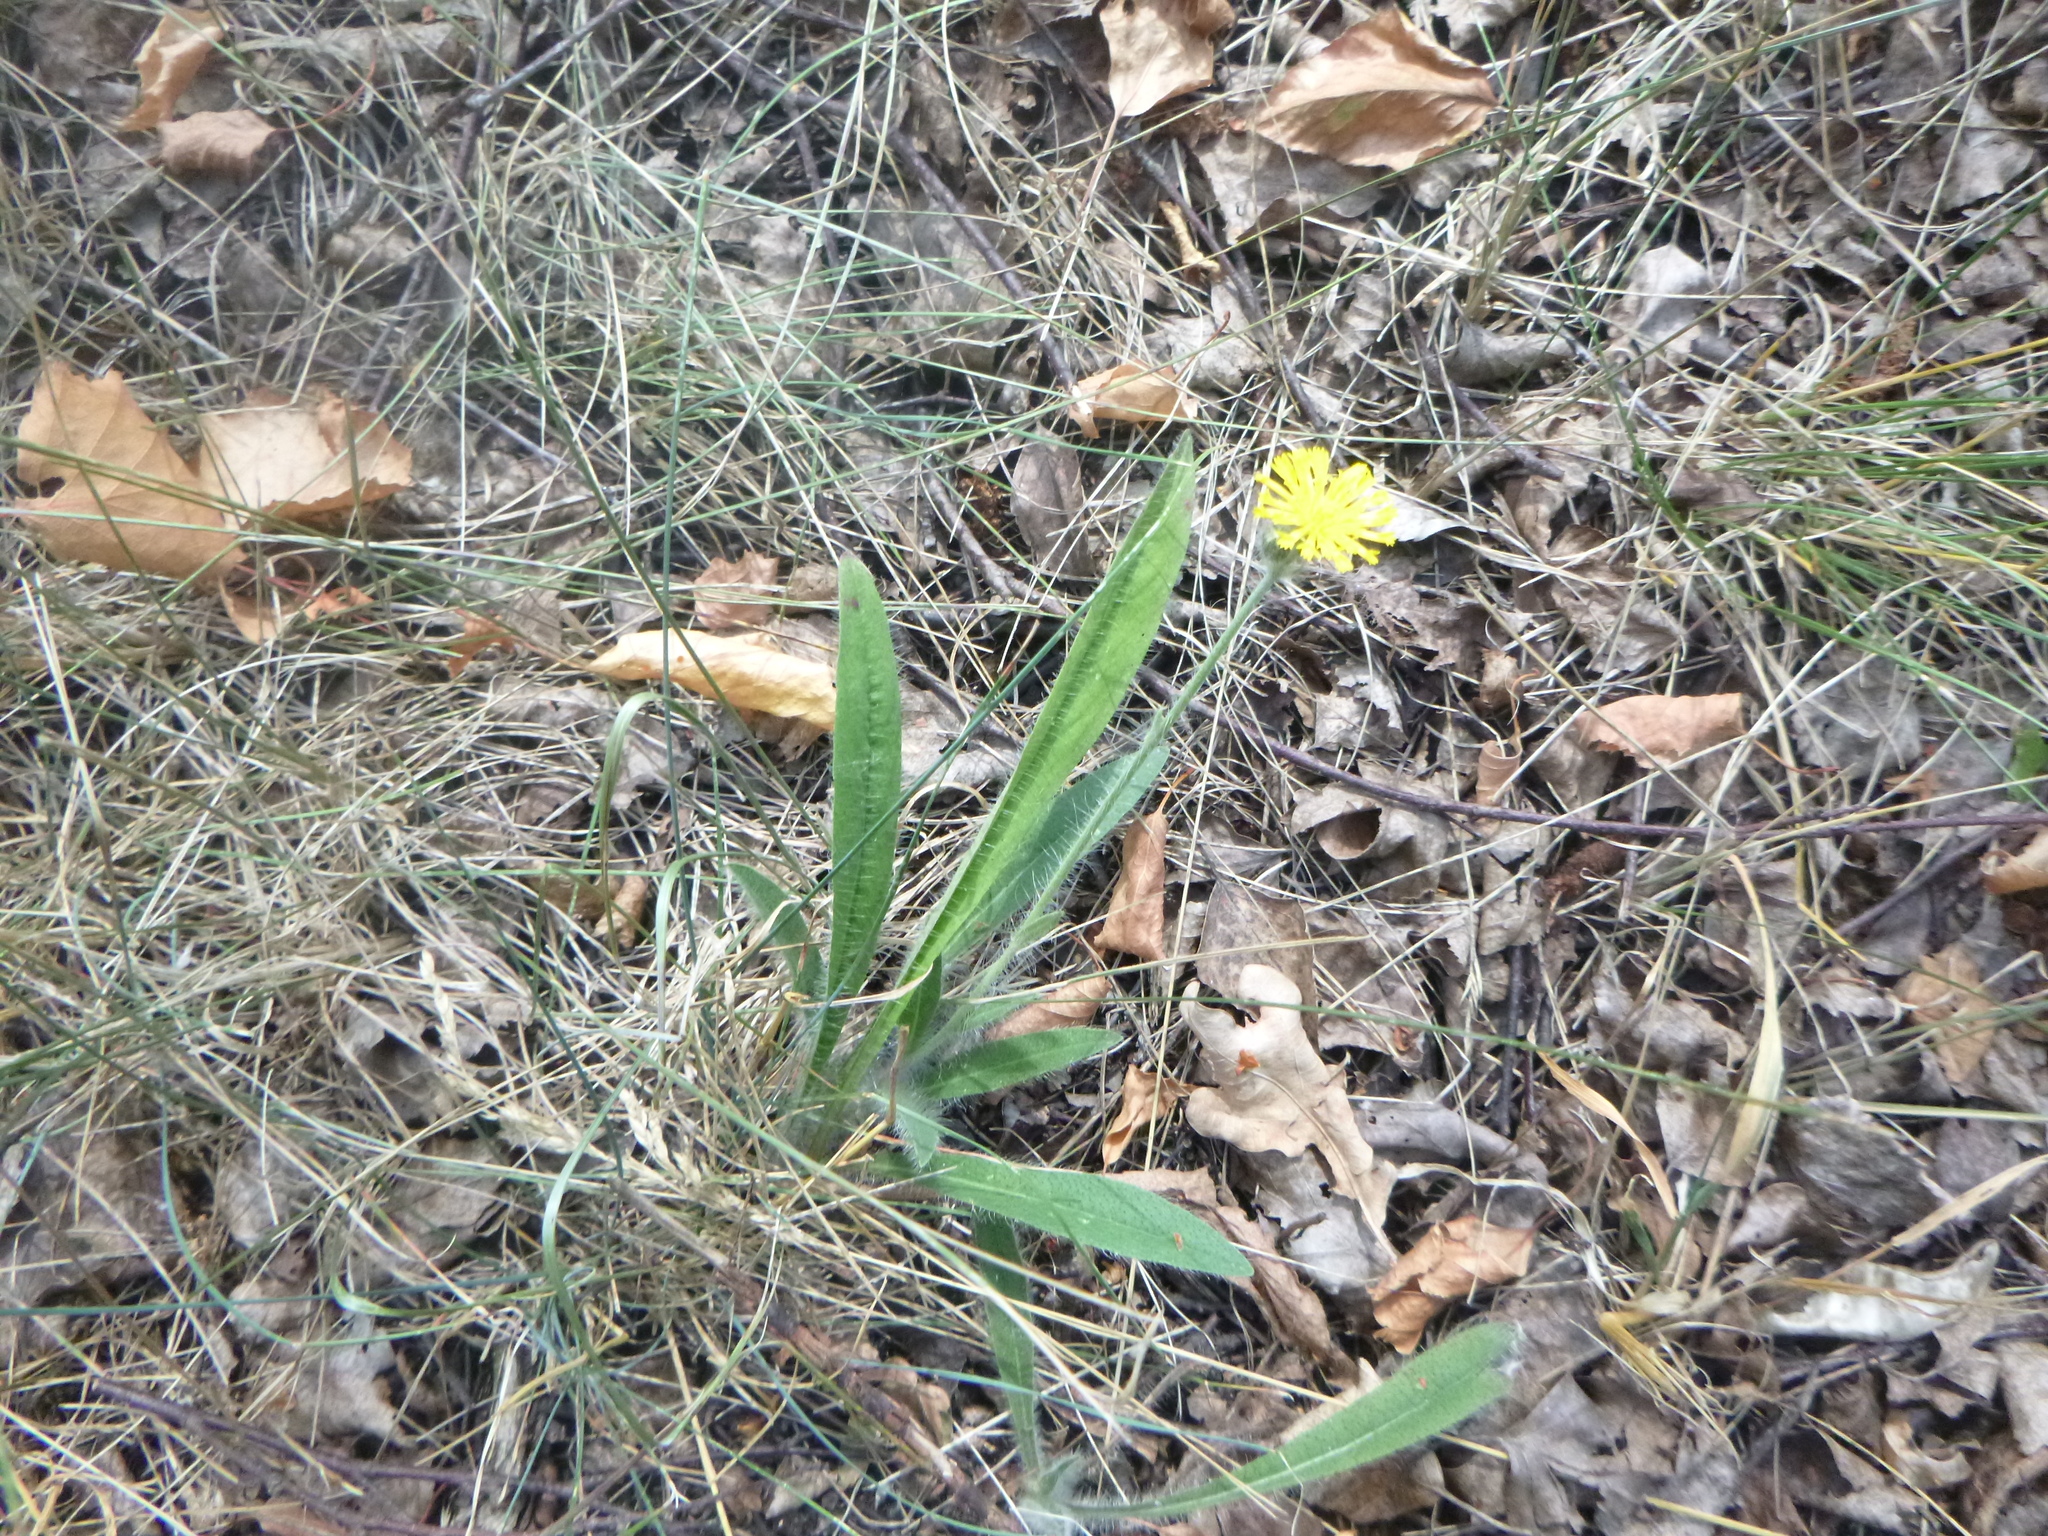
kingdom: Plantae
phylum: Tracheophyta
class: Magnoliopsida
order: Asterales
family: Asteraceae
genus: Pilosella
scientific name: Pilosella officinarum
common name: Mouse-ear hawkweed
